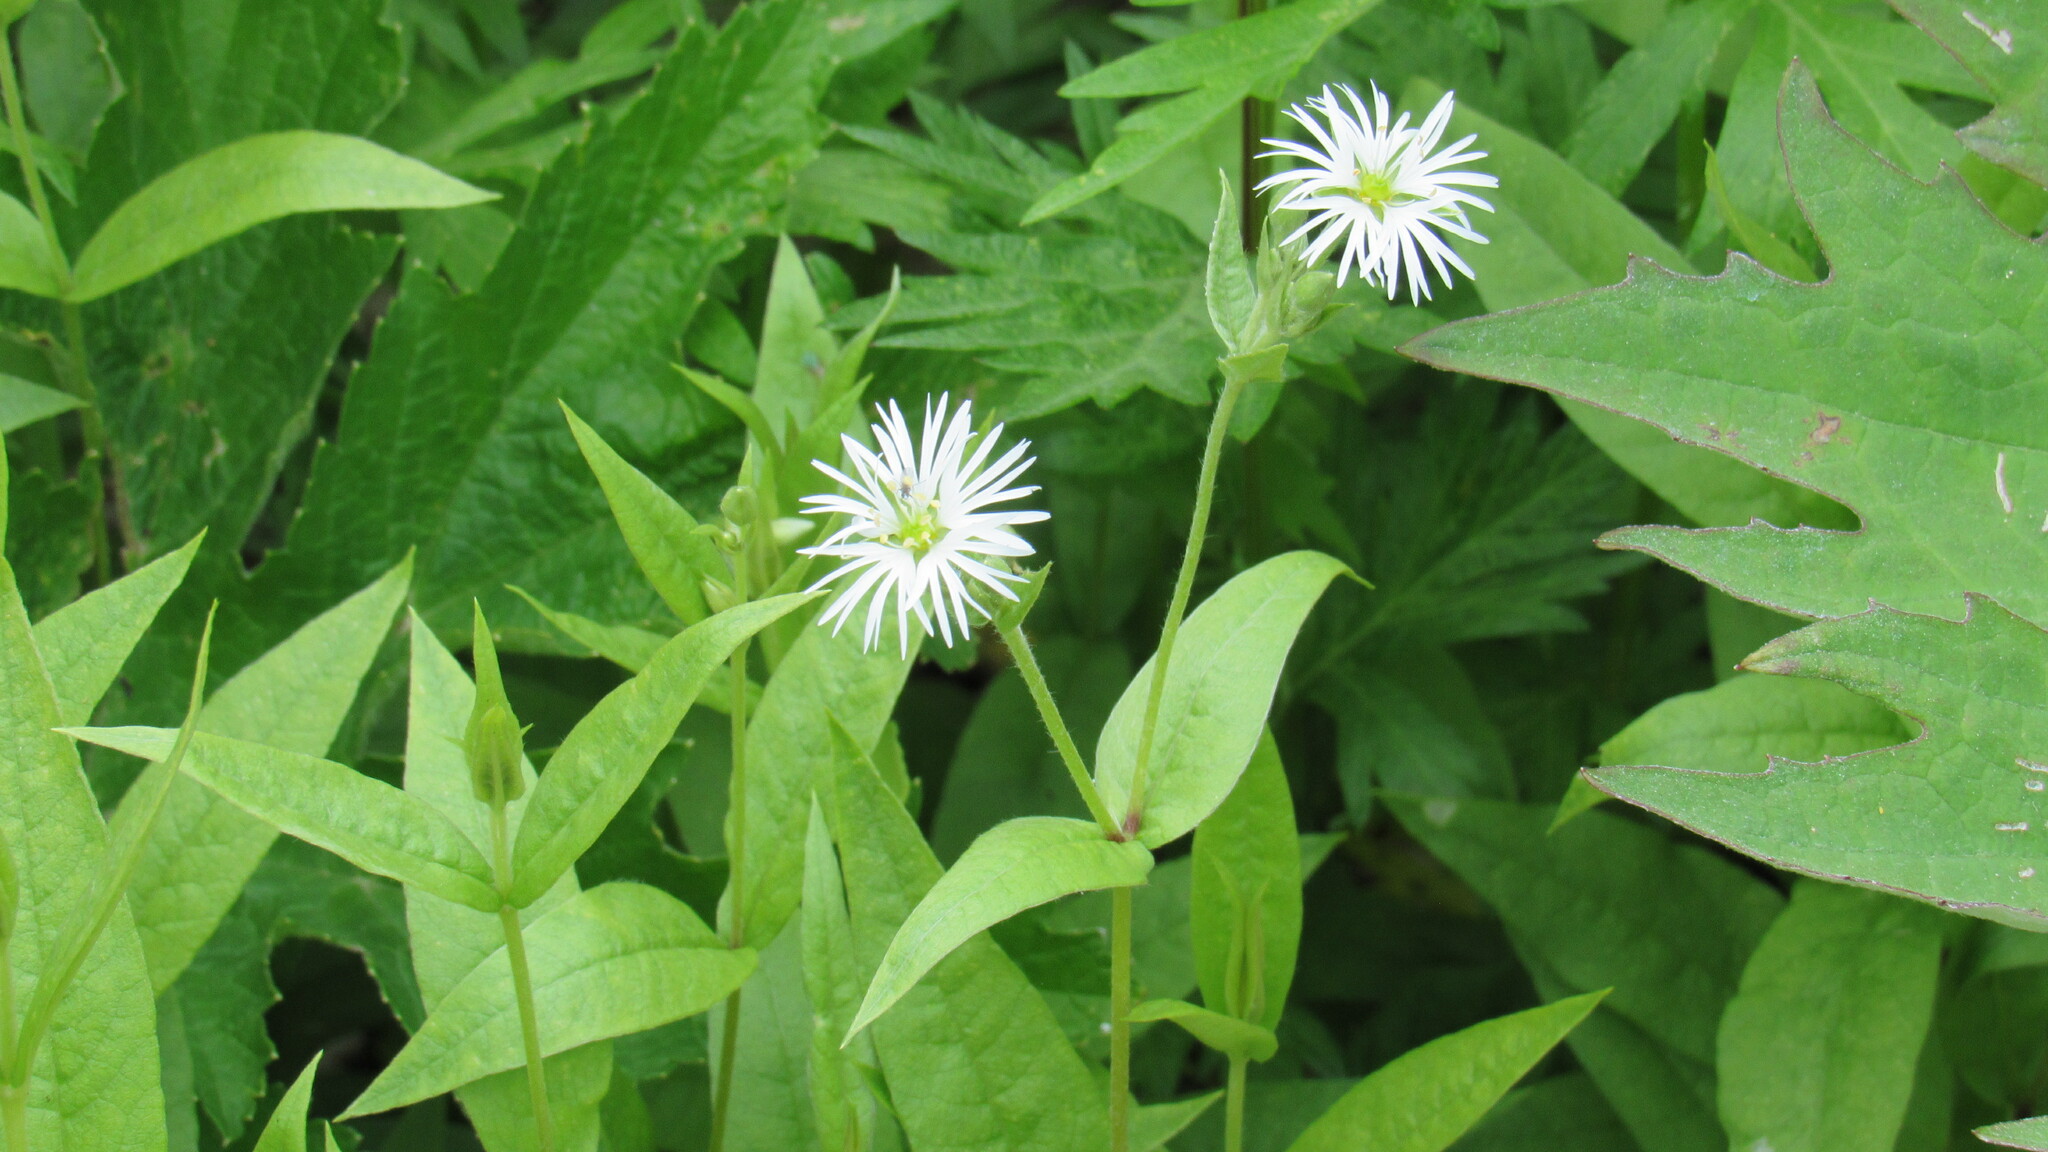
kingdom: Plantae
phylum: Tracheophyta
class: Magnoliopsida
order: Caryophyllales
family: Caryophyllaceae
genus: Stellaria
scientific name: Stellaria radians
